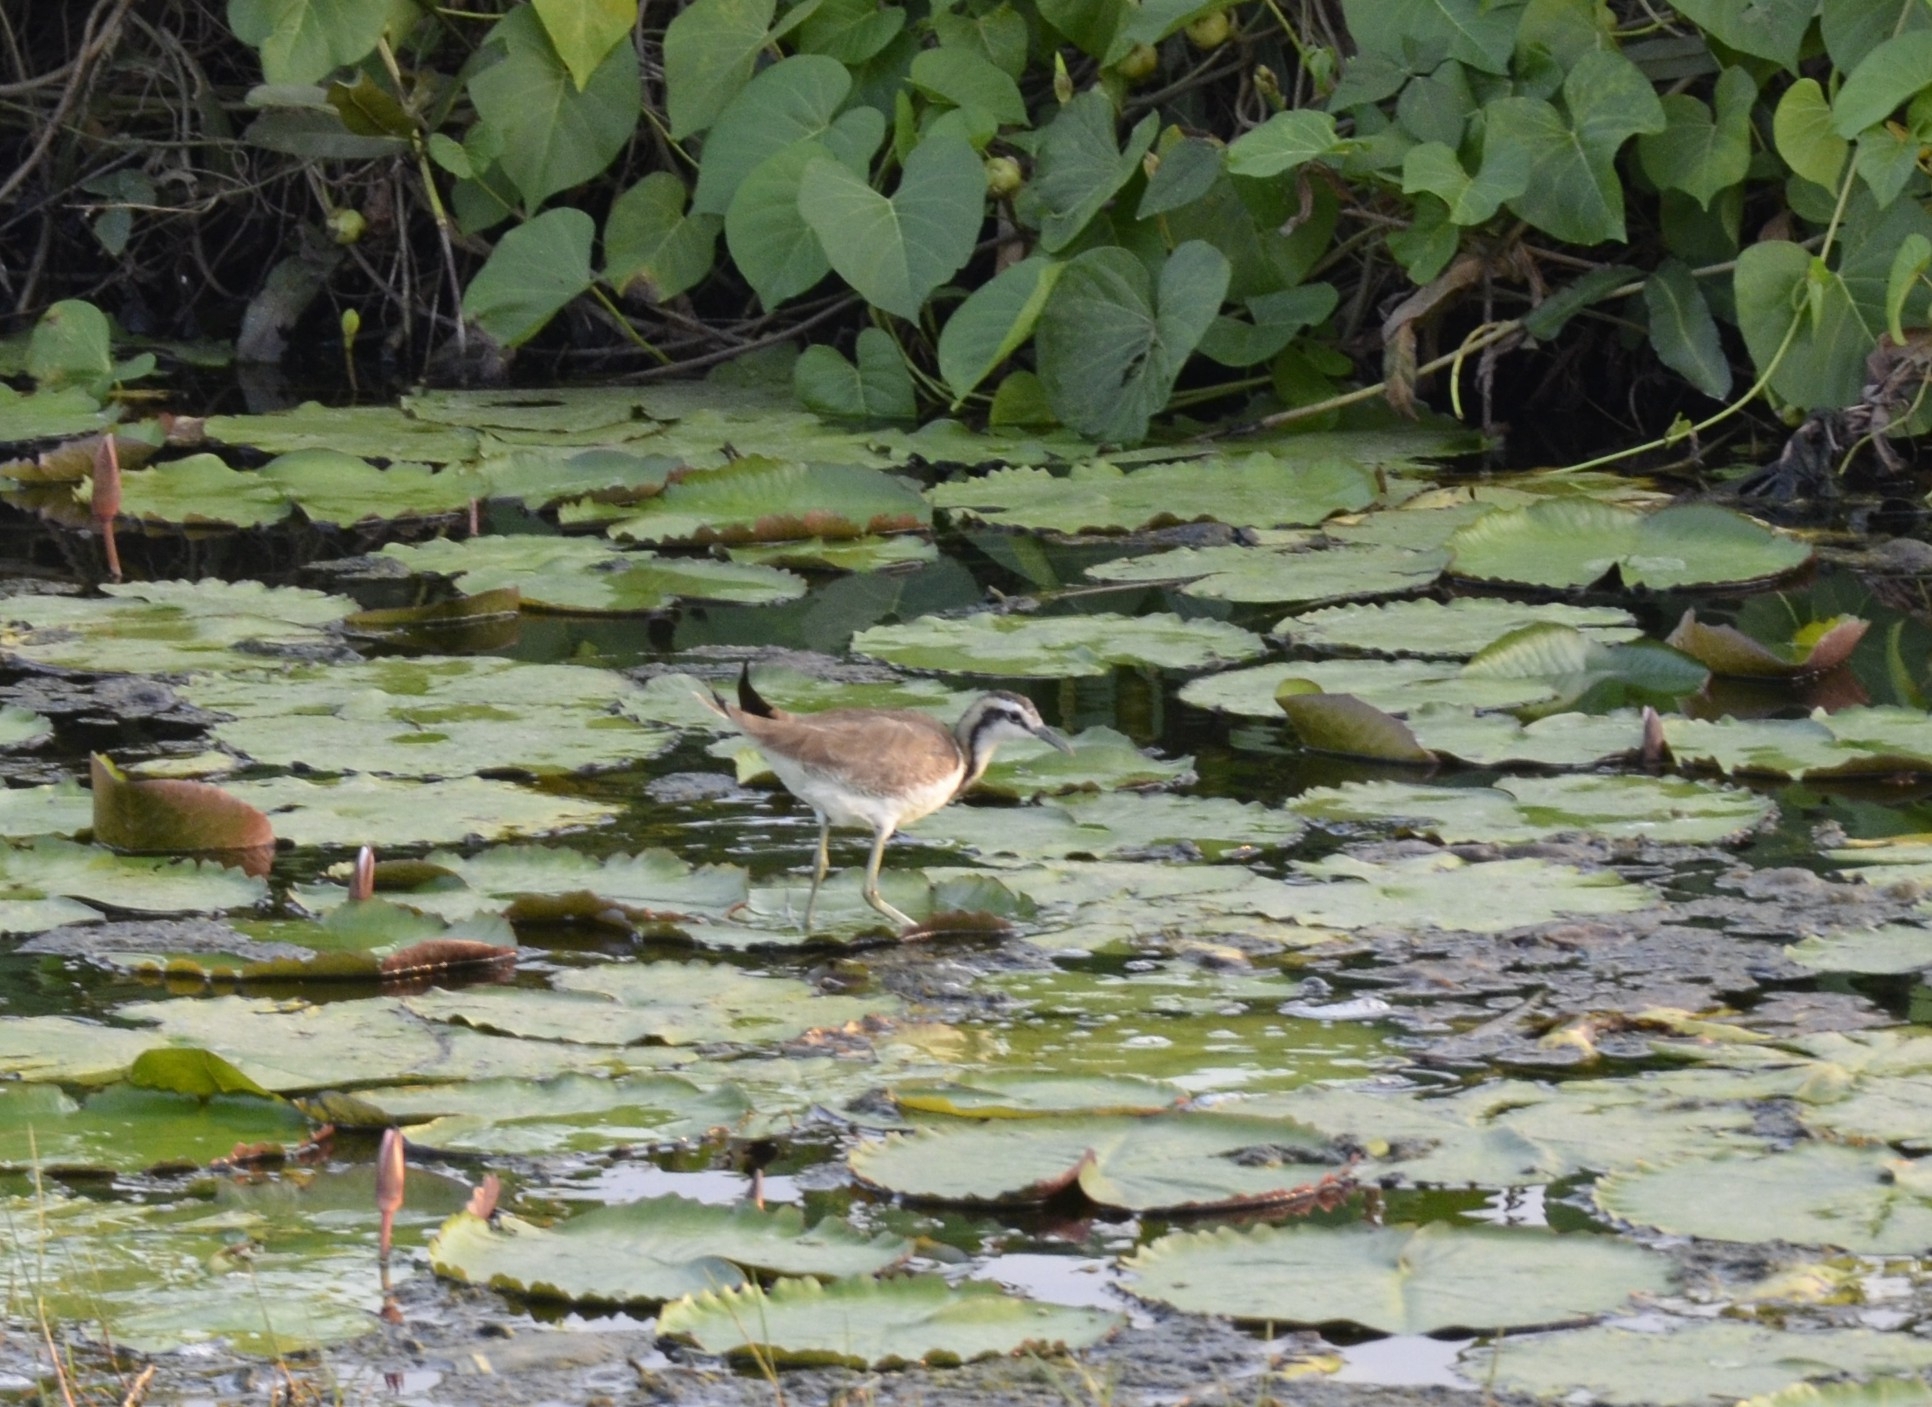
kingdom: Animalia
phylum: Chordata
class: Aves
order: Charadriiformes
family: Jacanidae
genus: Hydrophasianus
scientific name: Hydrophasianus chirurgus
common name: Pheasant-tailed jacana
